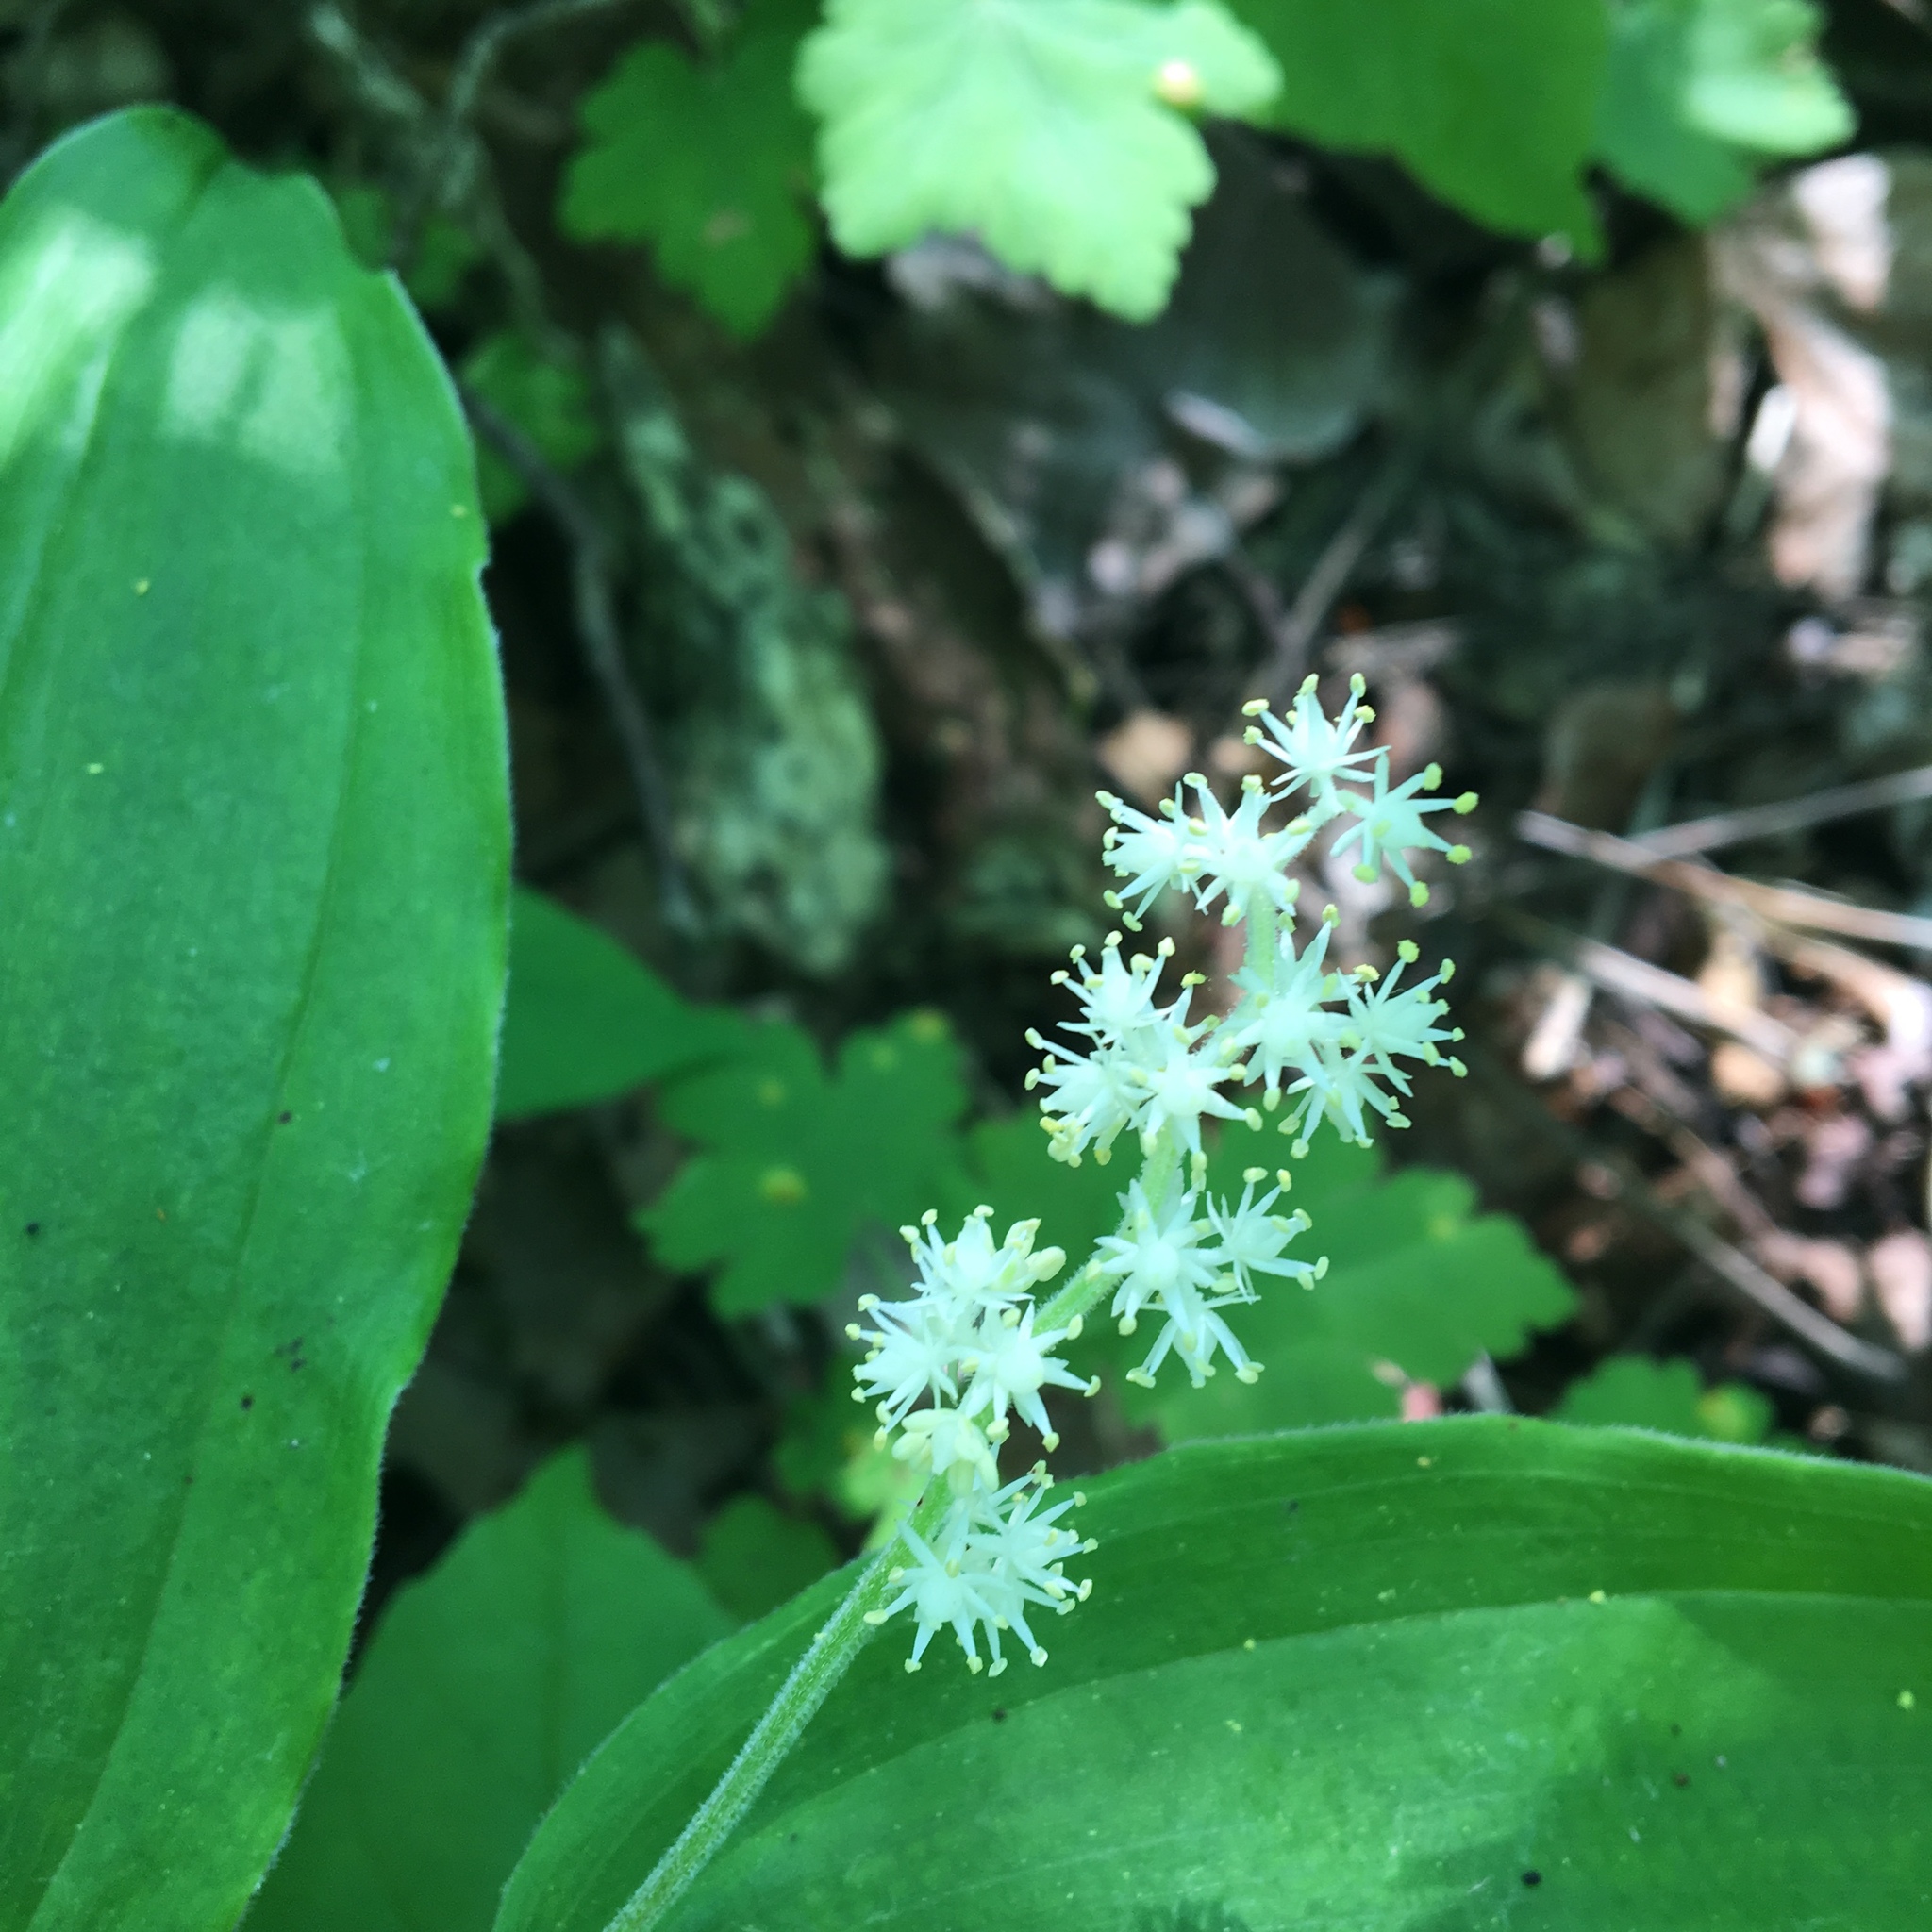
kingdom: Plantae
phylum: Tracheophyta
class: Liliopsida
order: Asparagales
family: Asparagaceae
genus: Maianthemum
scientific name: Maianthemum racemosum
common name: False spikenard
